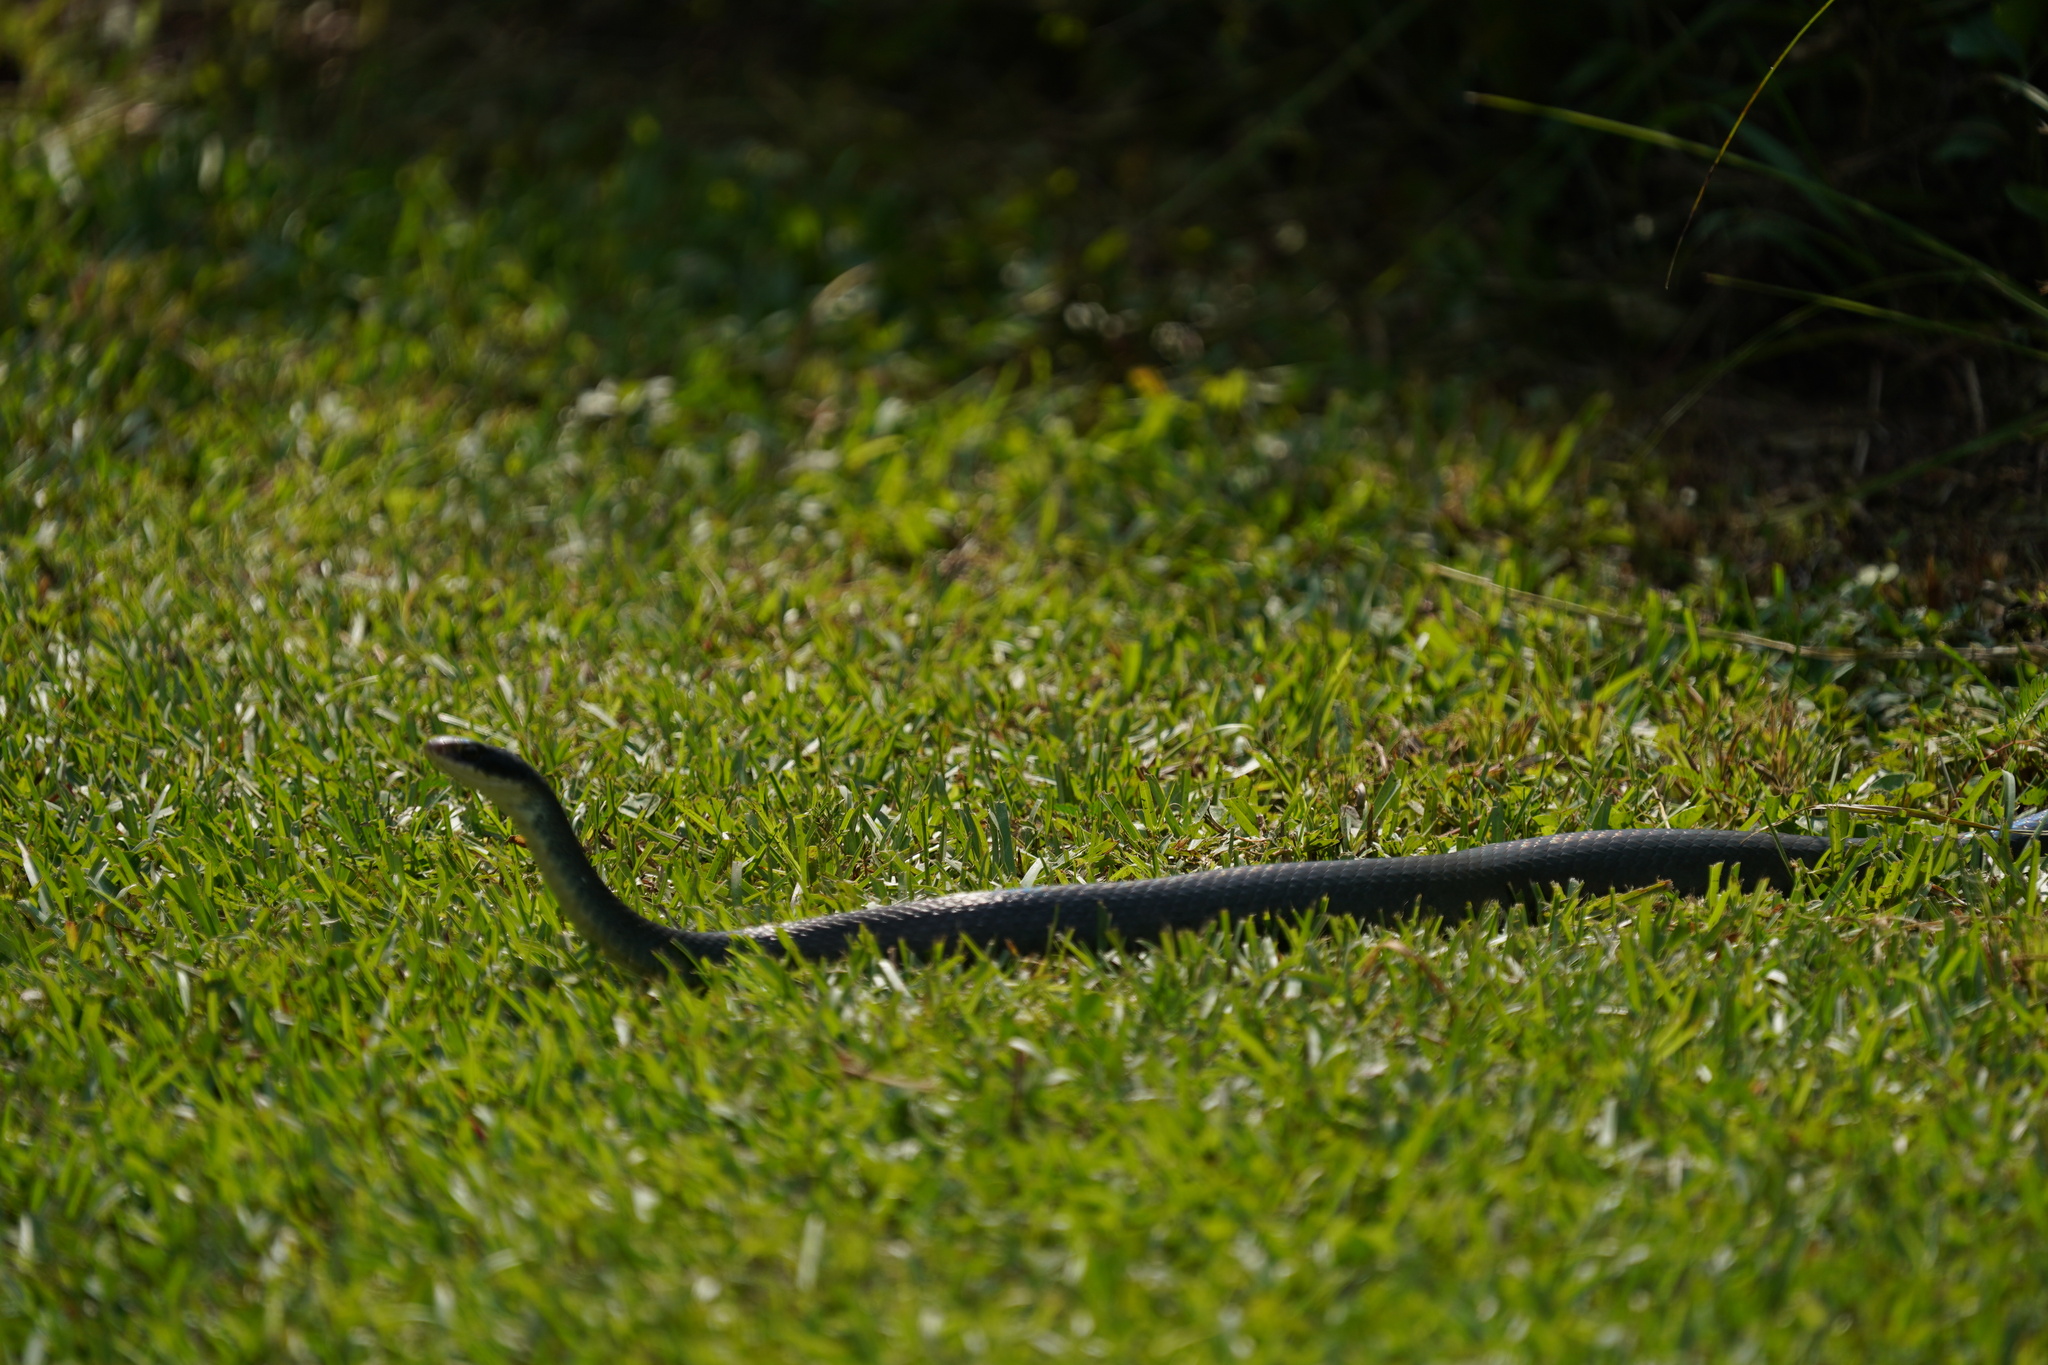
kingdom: Animalia
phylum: Chordata
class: Squamata
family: Colubridae
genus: Coluber
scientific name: Coluber constrictor
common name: Eastern racer
